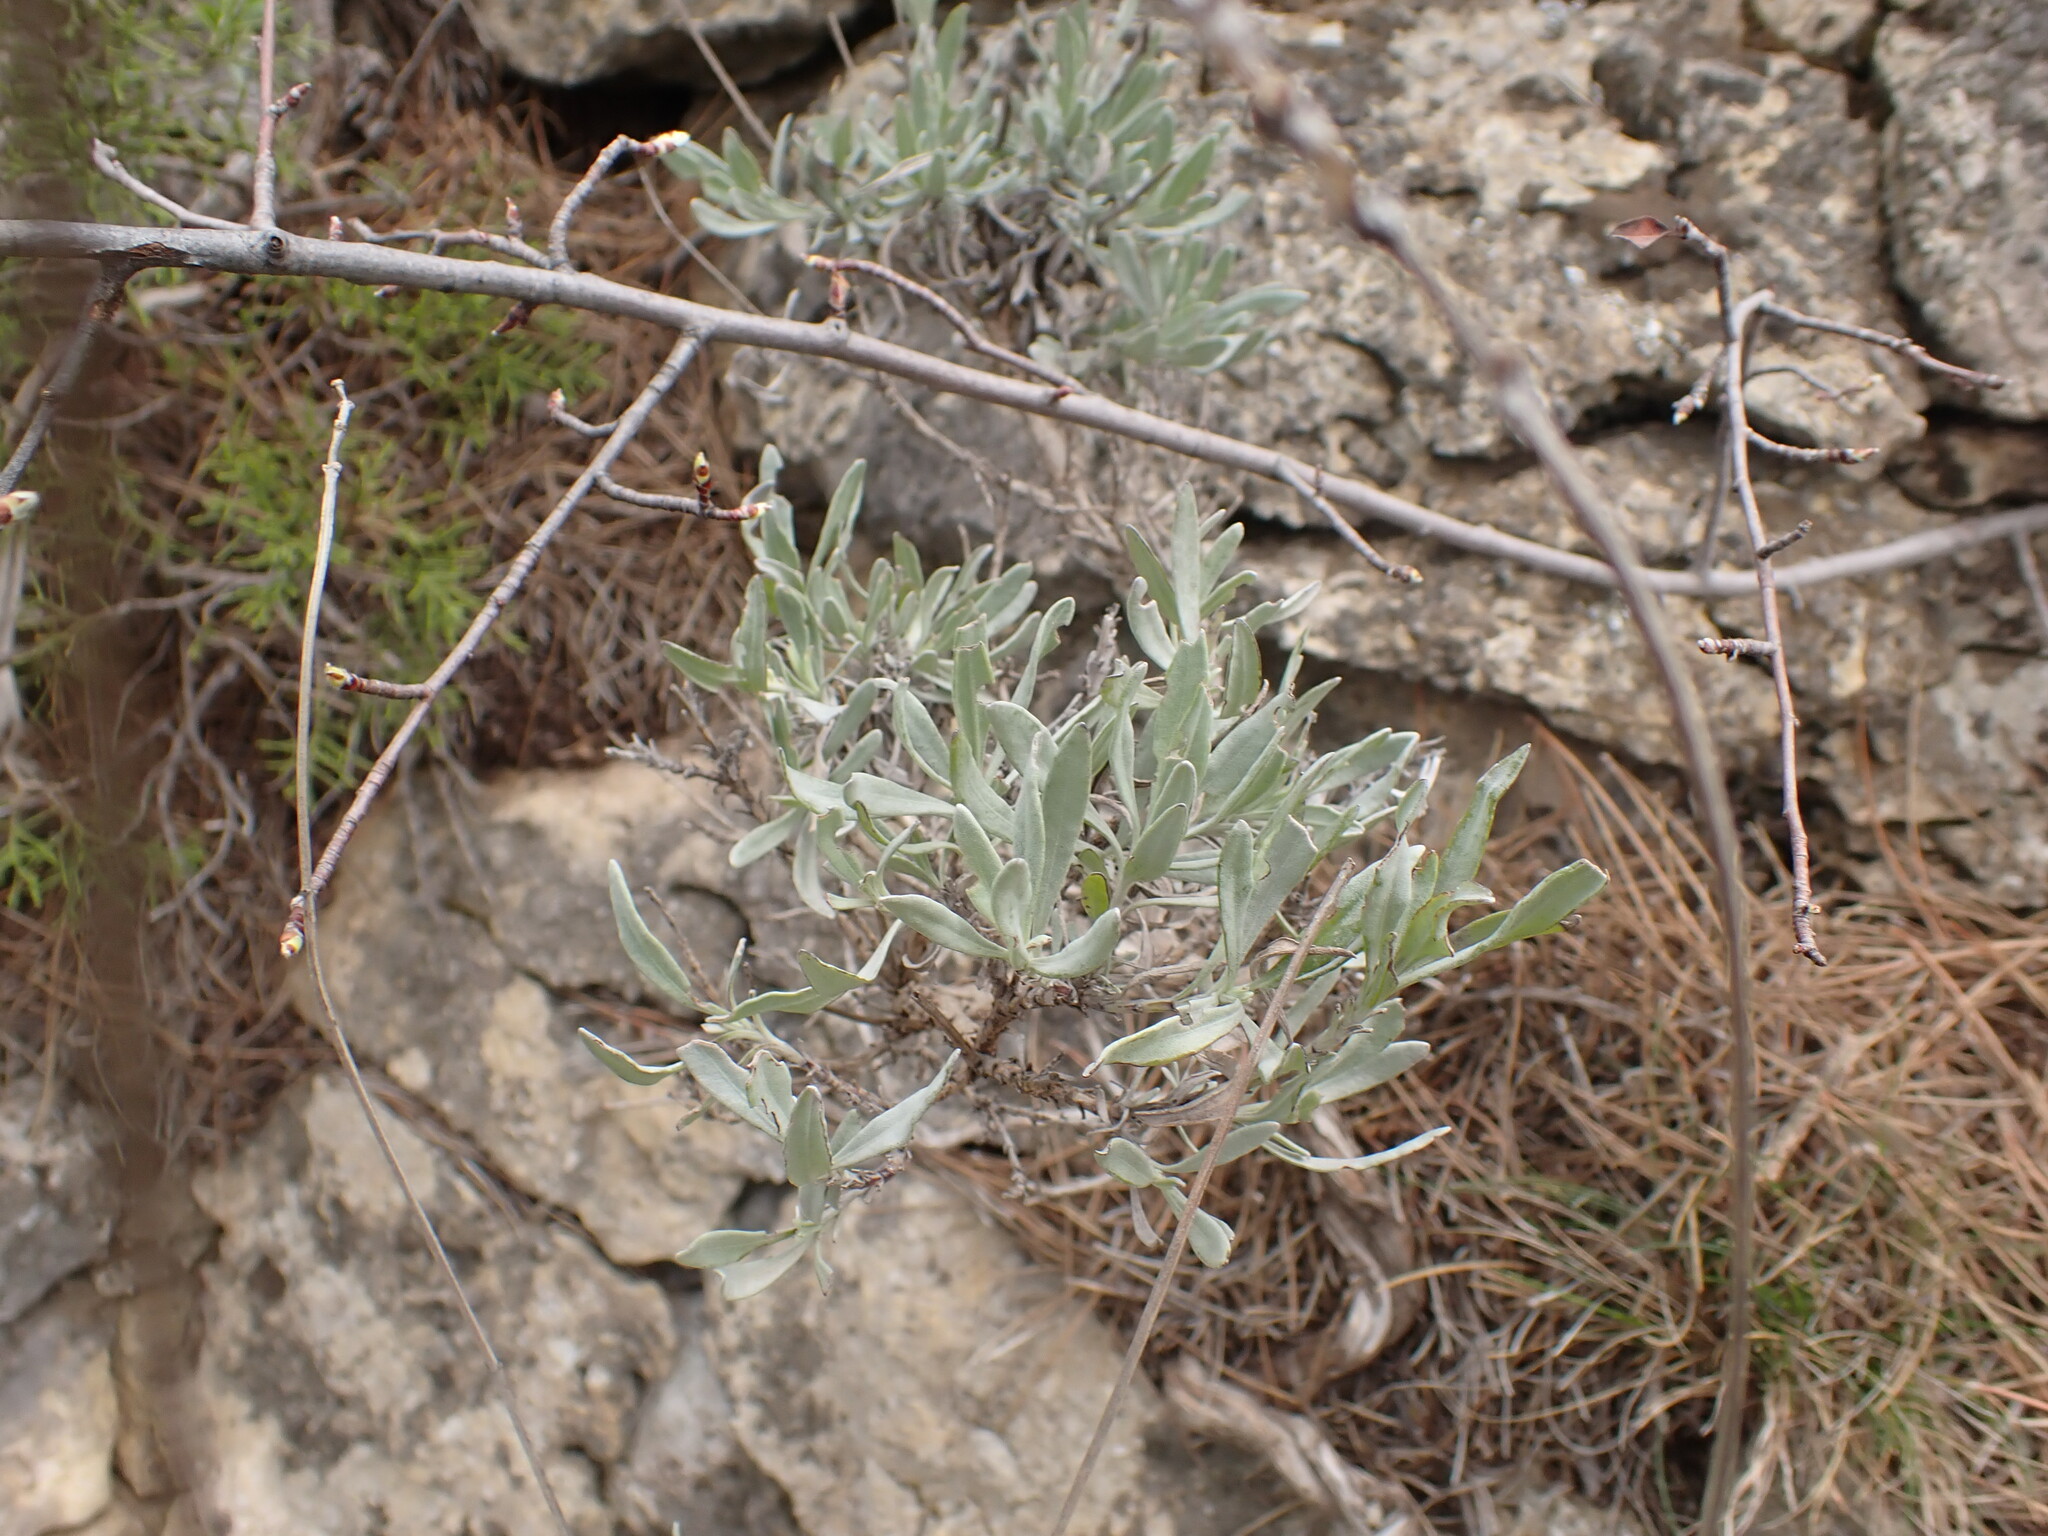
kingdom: Plantae
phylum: Tracheophyta
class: Magnoliopsida
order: Lamiales
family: Lamiaceae
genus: Lavandula
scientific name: Lavandula latifolia
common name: Spike lavendar
